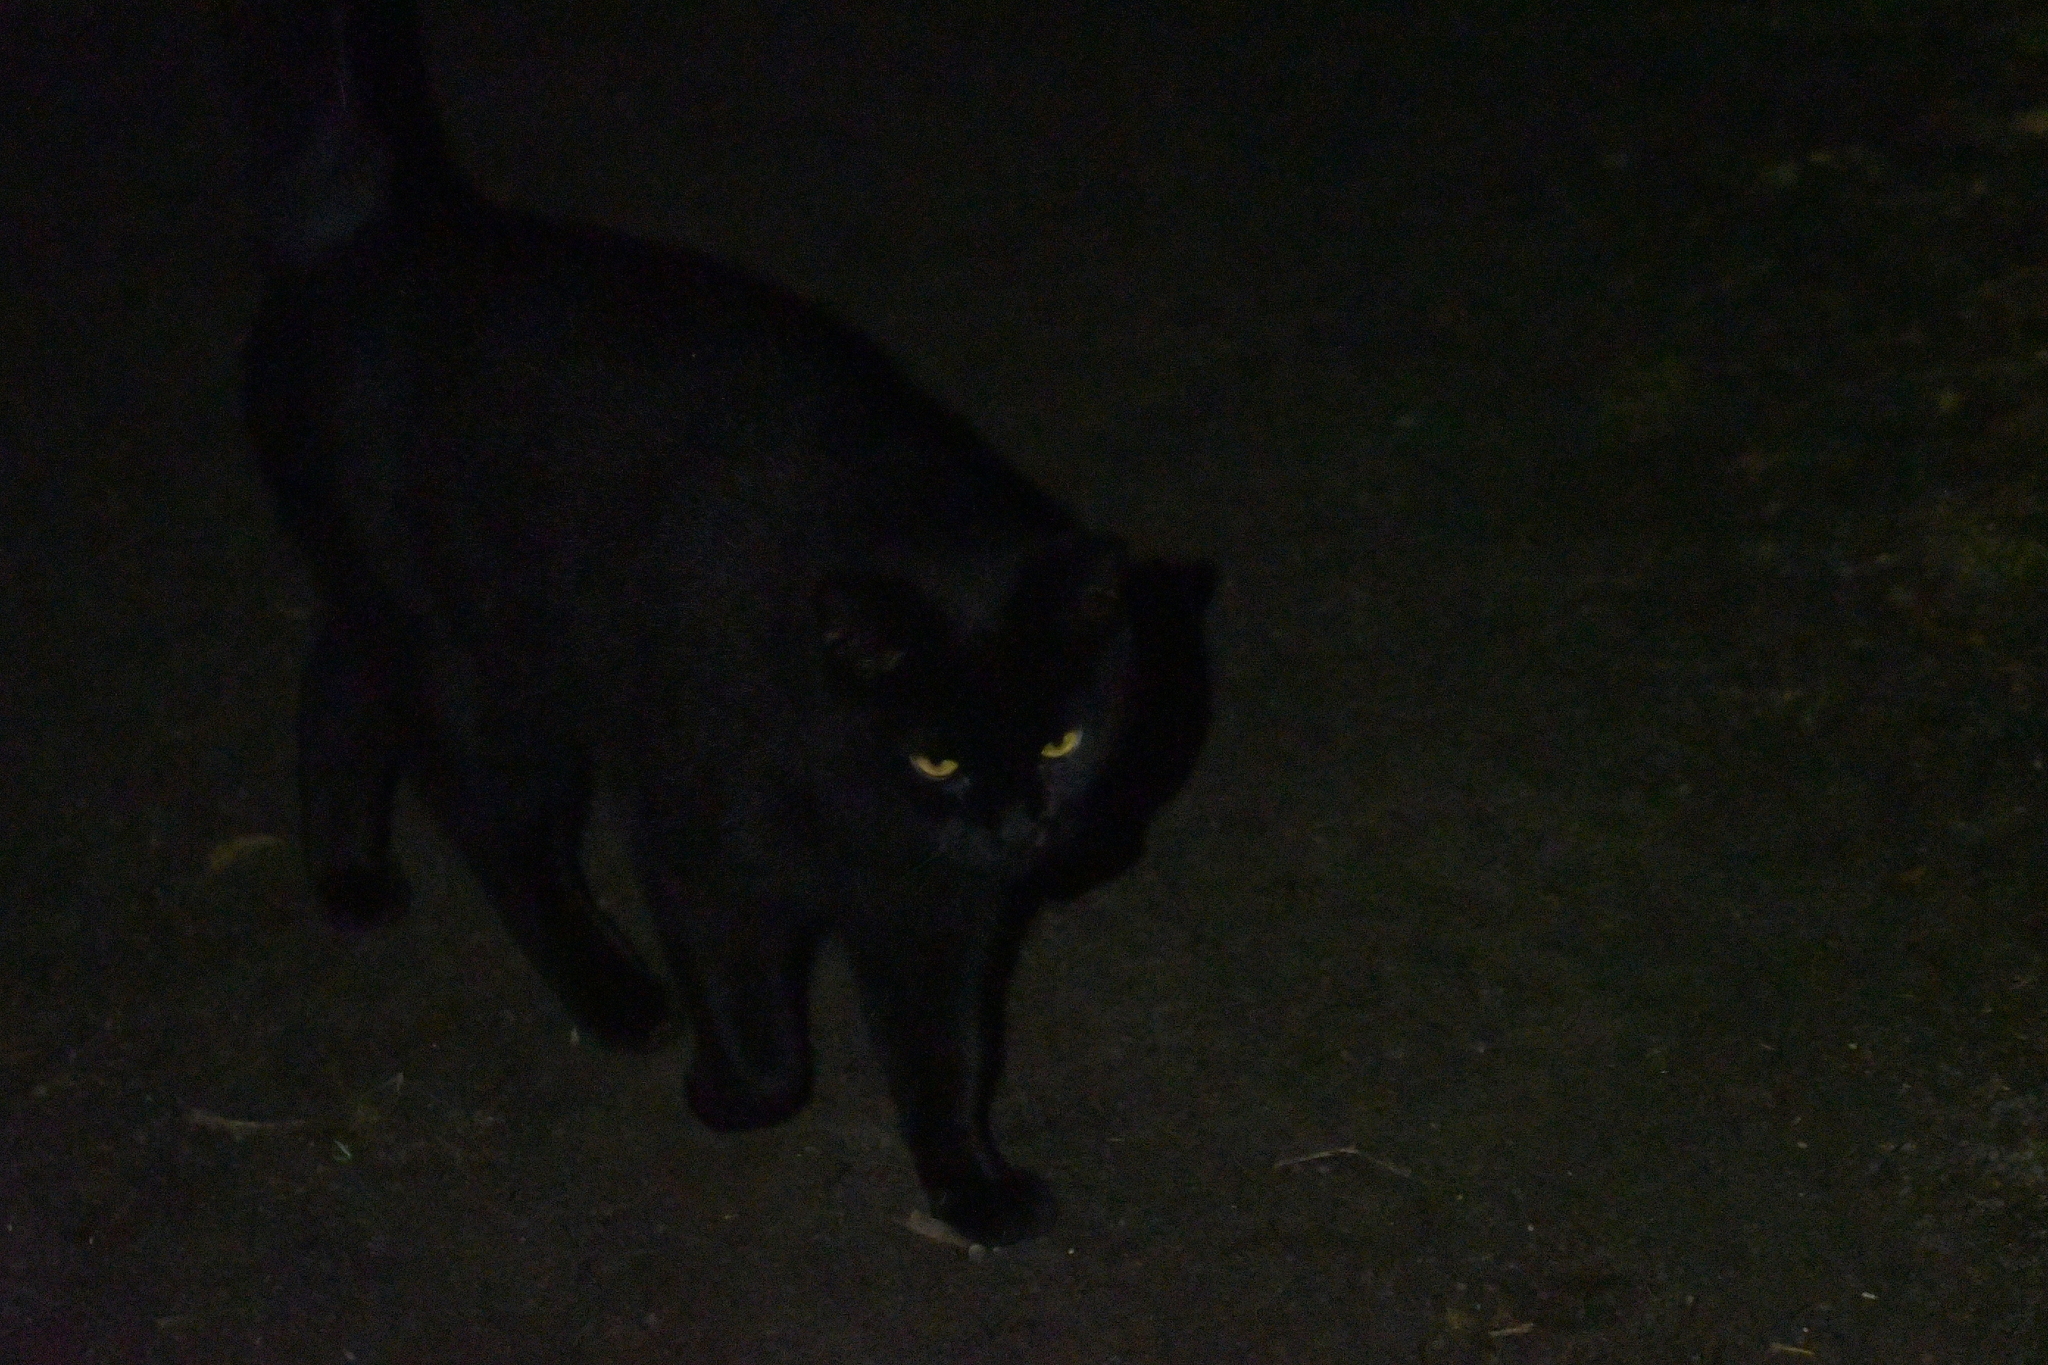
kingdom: Animalia
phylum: Chordata
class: Mammalia
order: Carnivora
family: Felidae
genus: Felis
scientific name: Felis catus
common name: Domestic cat
